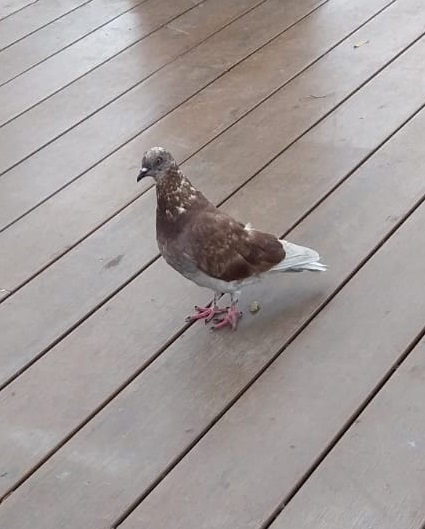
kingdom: Animalia
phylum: Chordata
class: Aves
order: Columbiformes
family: Columbidae
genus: Columba
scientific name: Columba livia
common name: Rock pigeon
